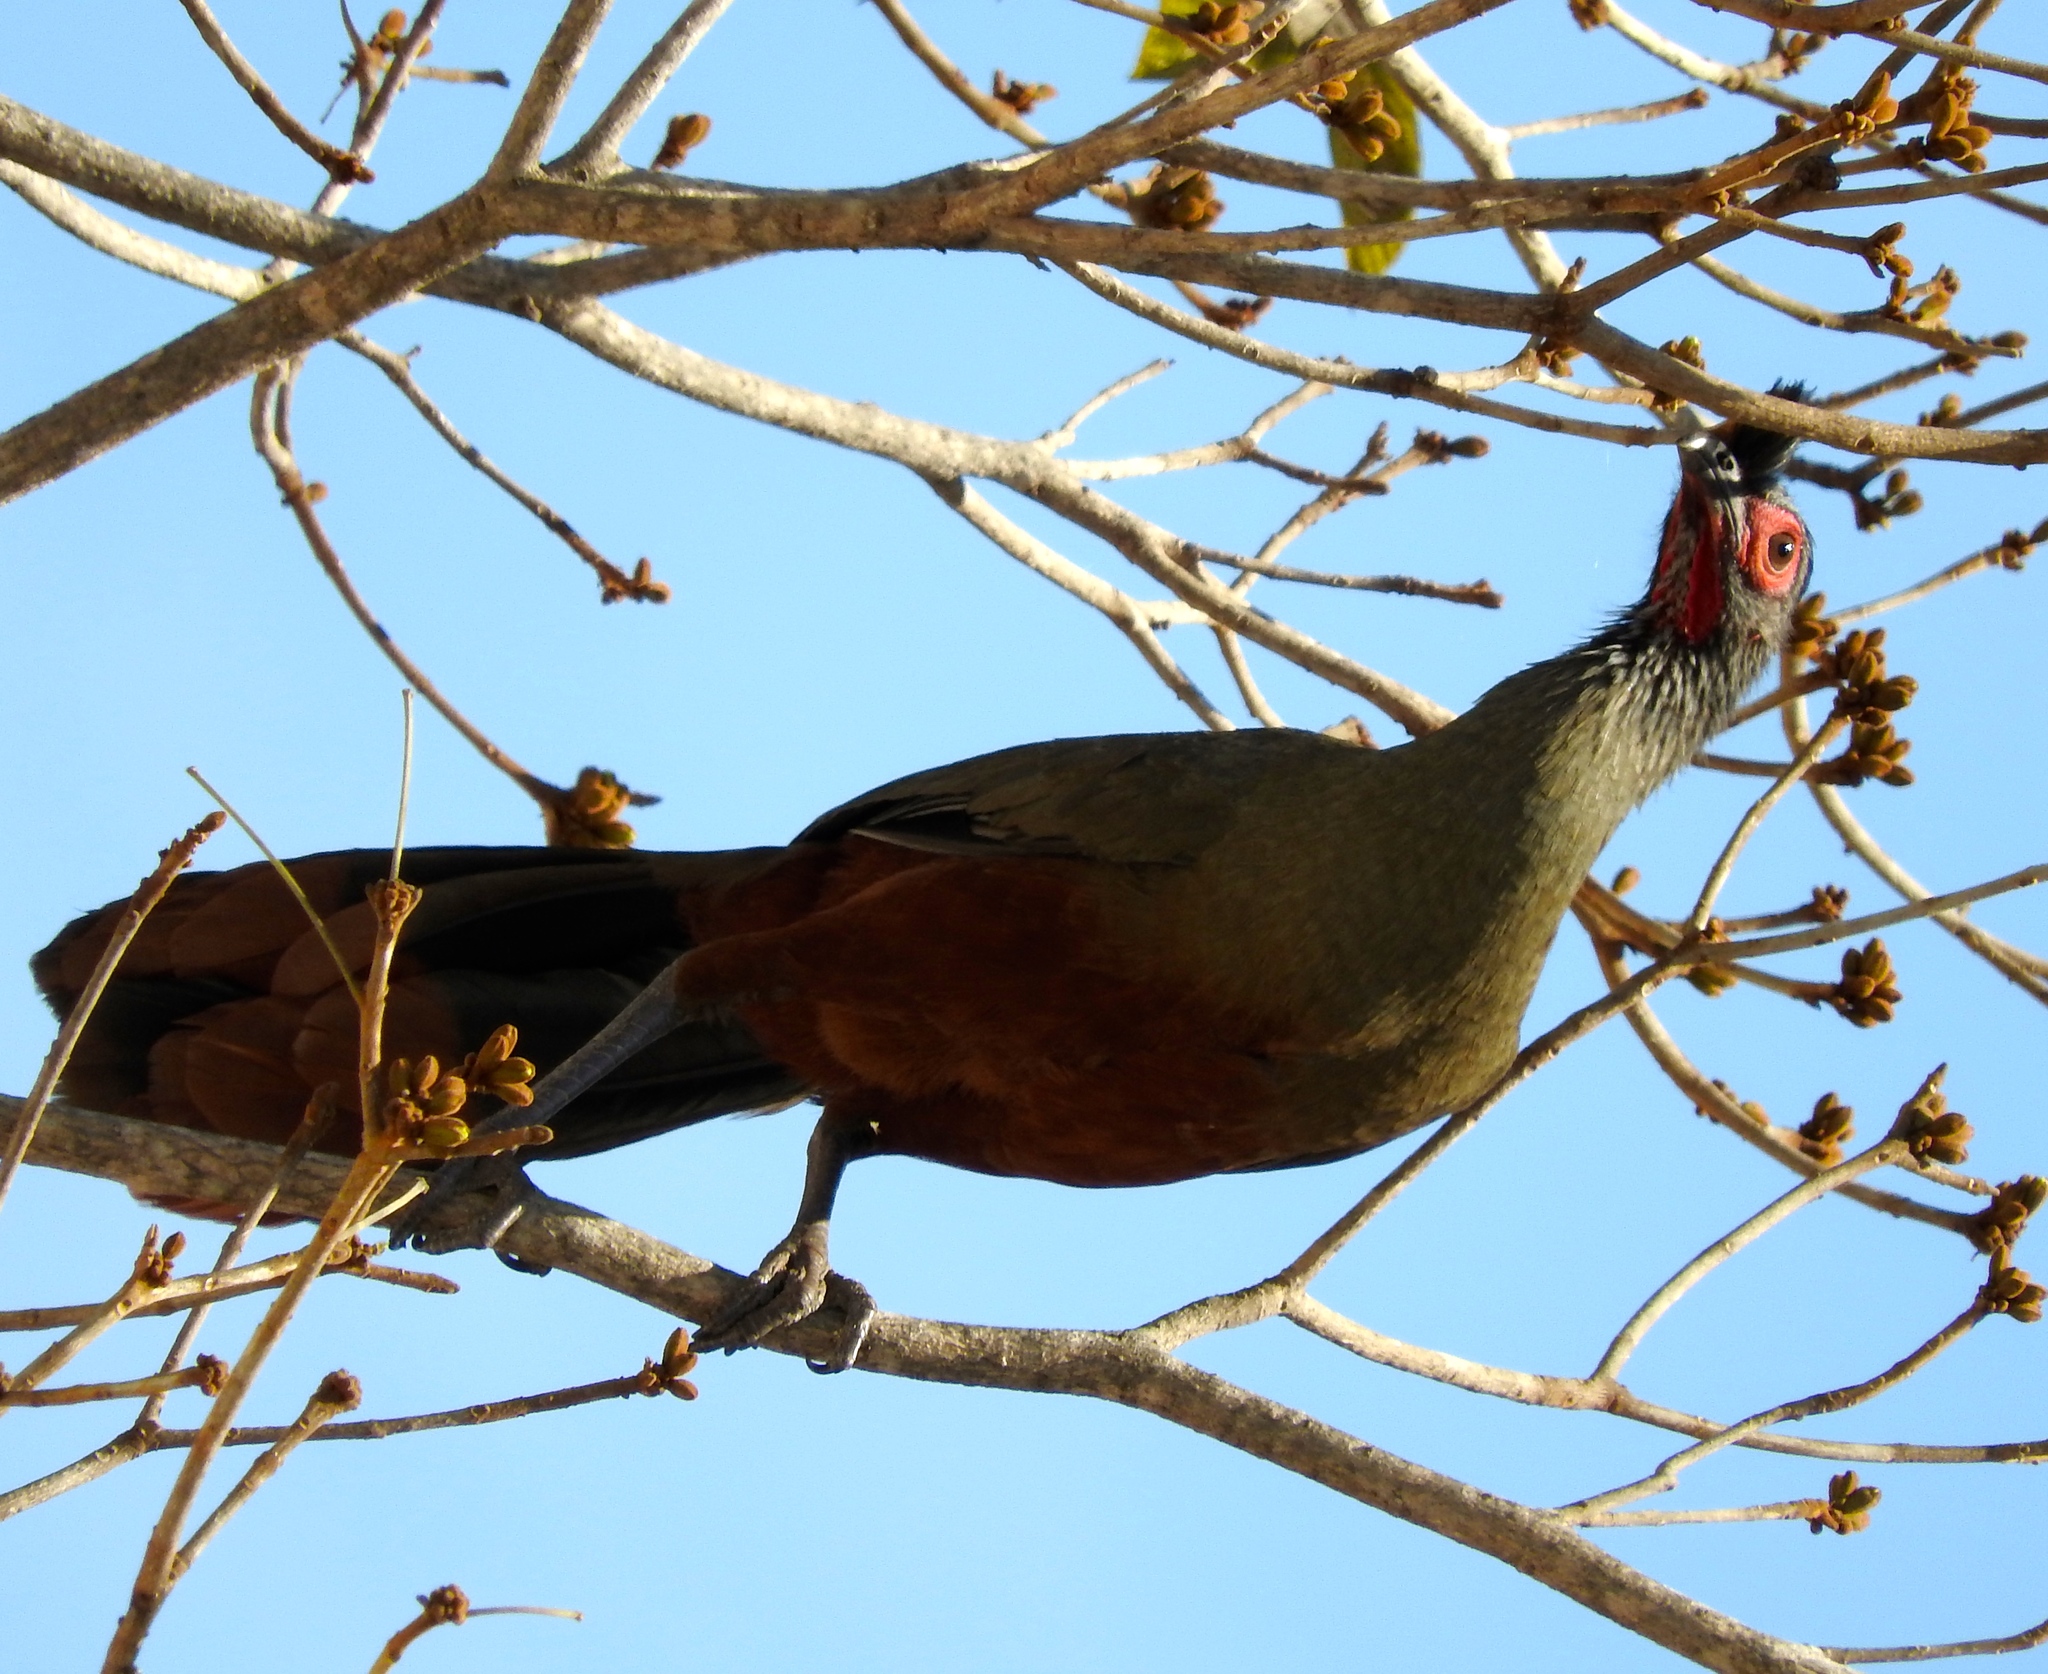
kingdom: Animalia
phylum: Chordata
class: Aves
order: Galliformes
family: Cracidae
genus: Ortalis
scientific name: Ortalis wagleri
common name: Rufous-bellied chachalaca
